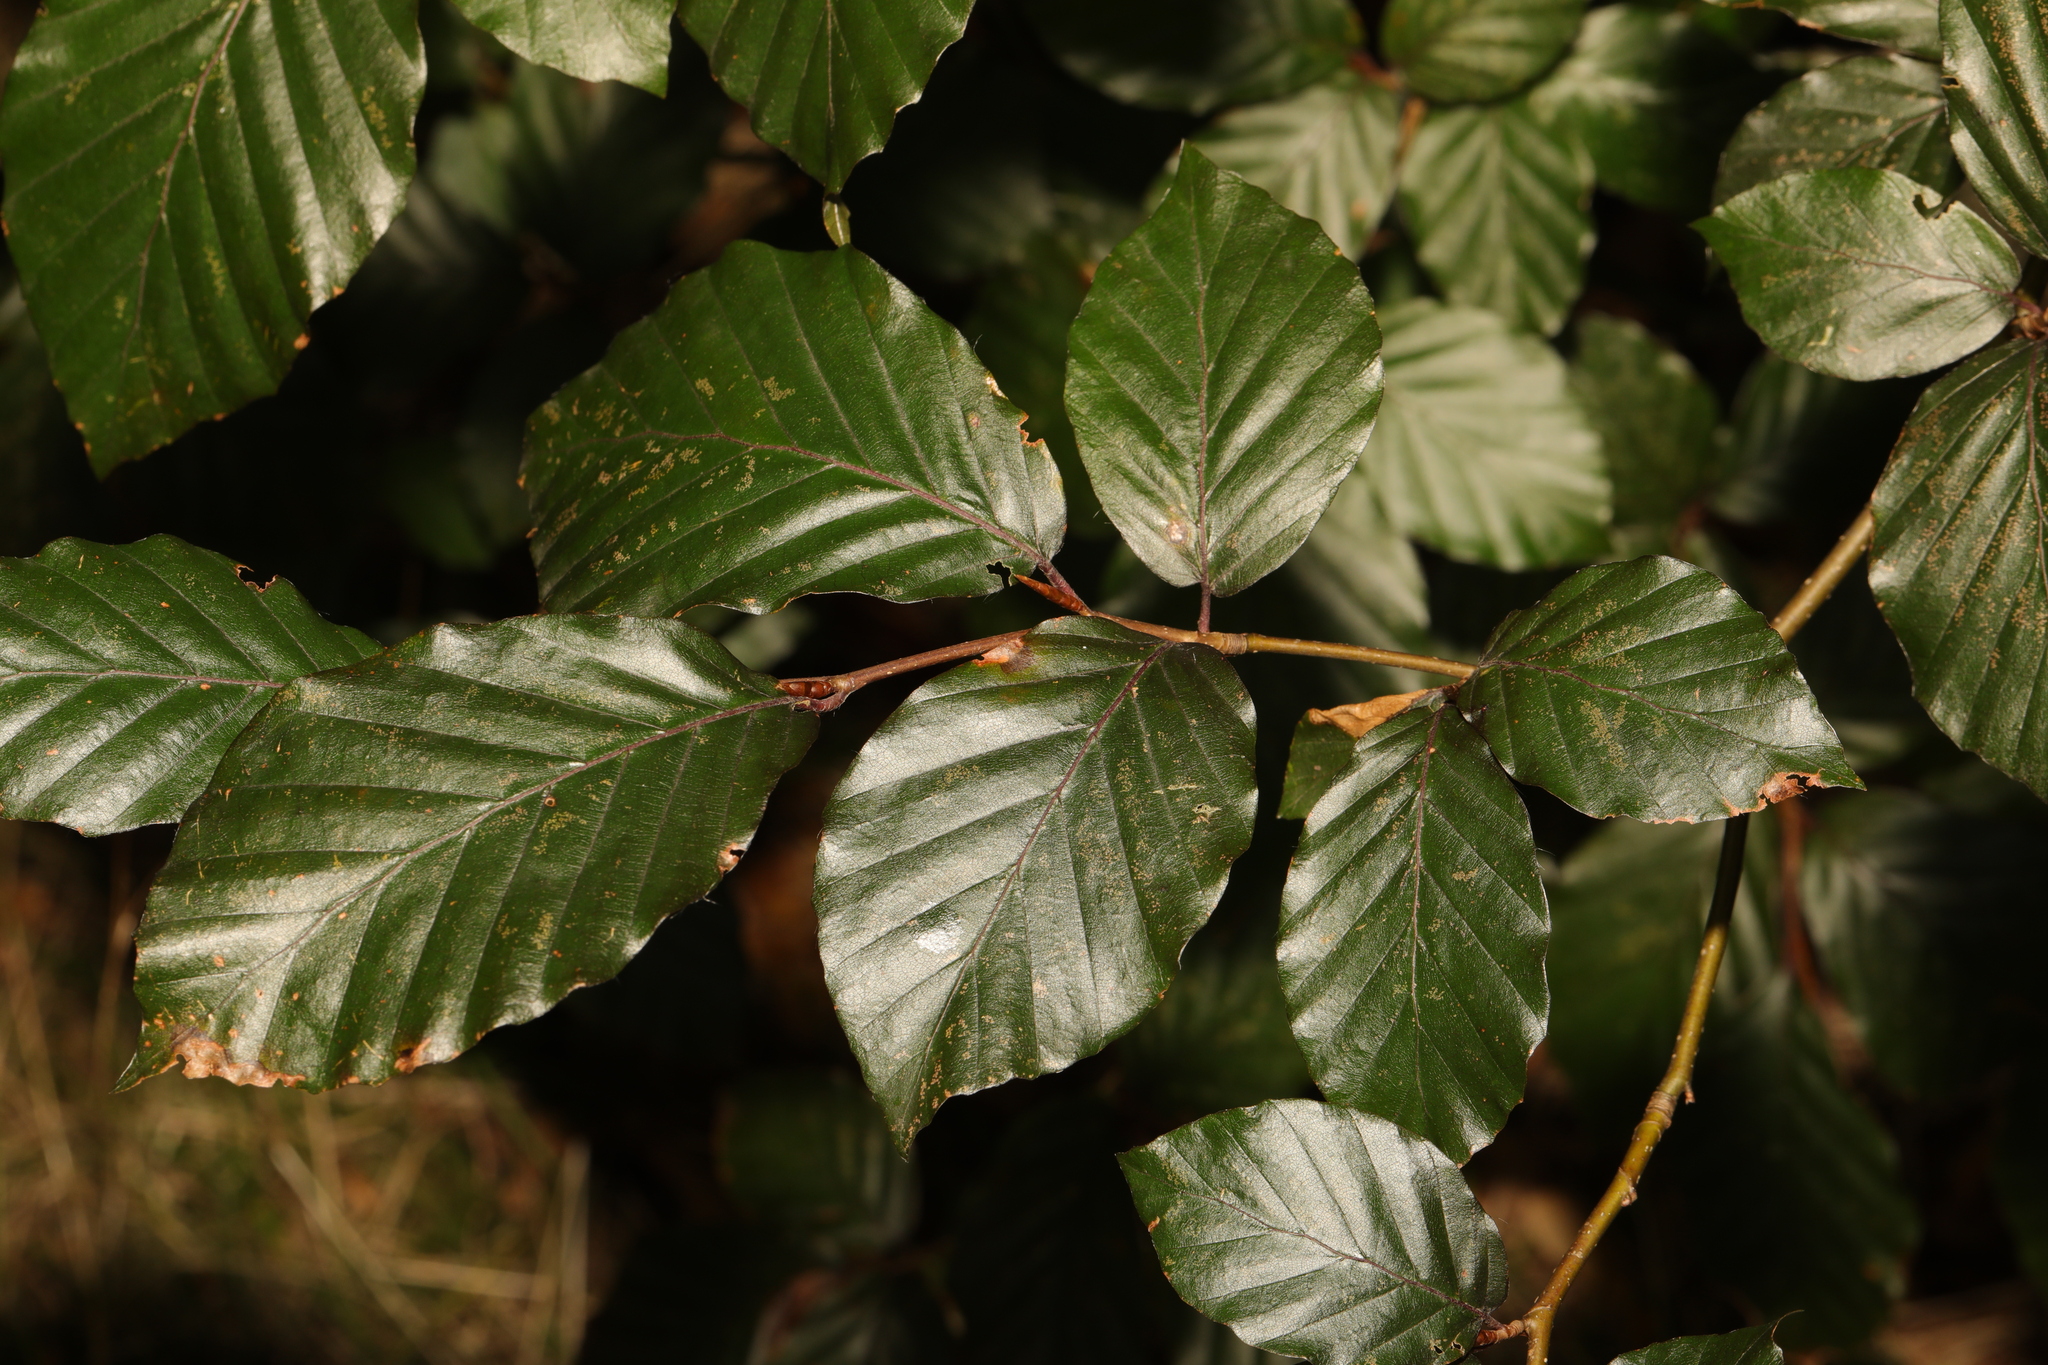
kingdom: Plantae
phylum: Tracheophyta
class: Magnoliopsida
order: Fagales
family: Fagaceae
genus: Fagus
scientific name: Fagus sylvatica
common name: Beech
